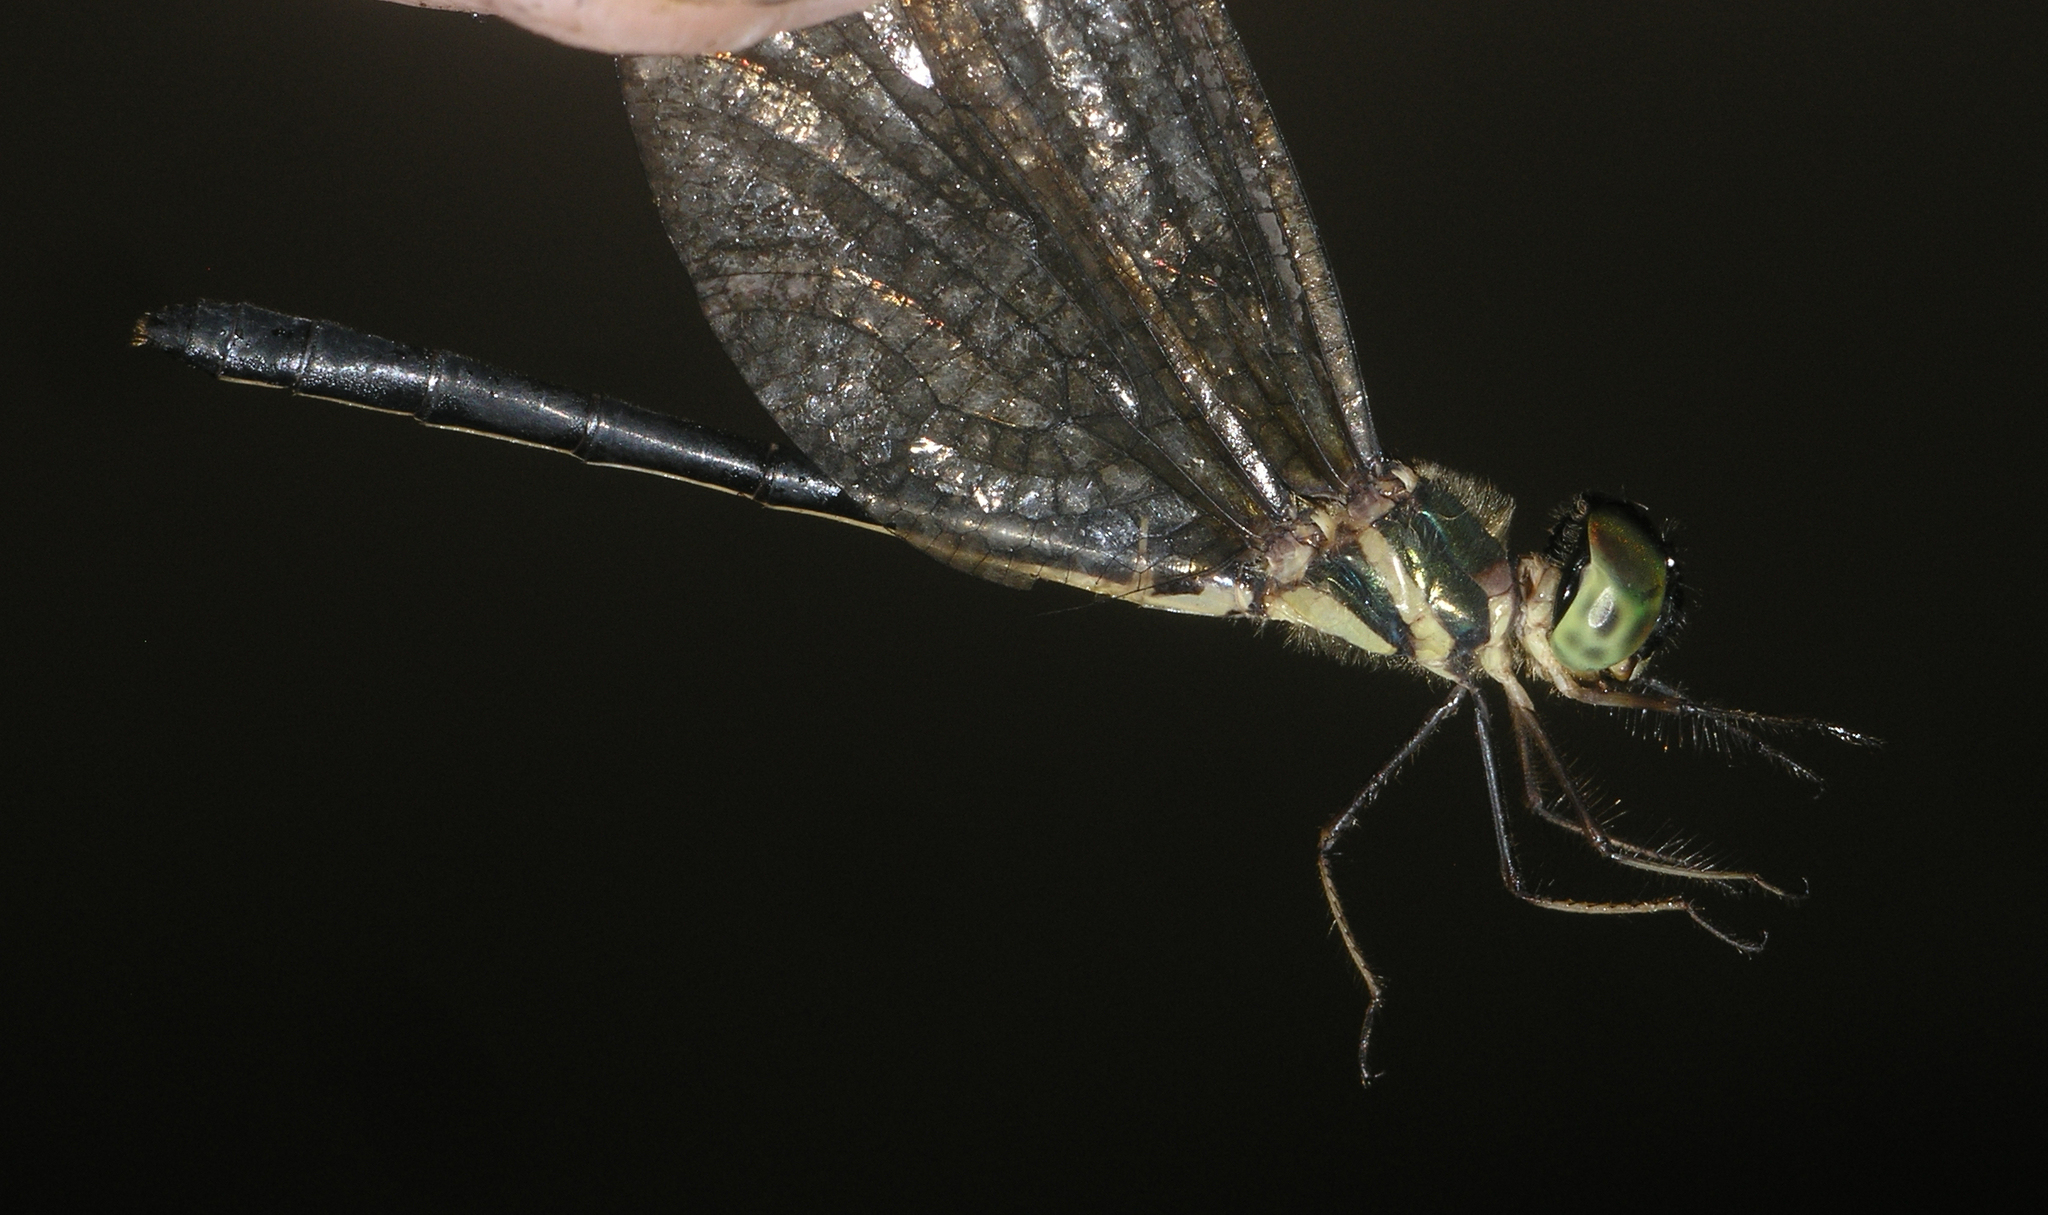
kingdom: Animalia
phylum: Arthropoda
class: Insecta
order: Odonata
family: Synthemistidae
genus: Idionyx
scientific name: Idionyx thailandicus
